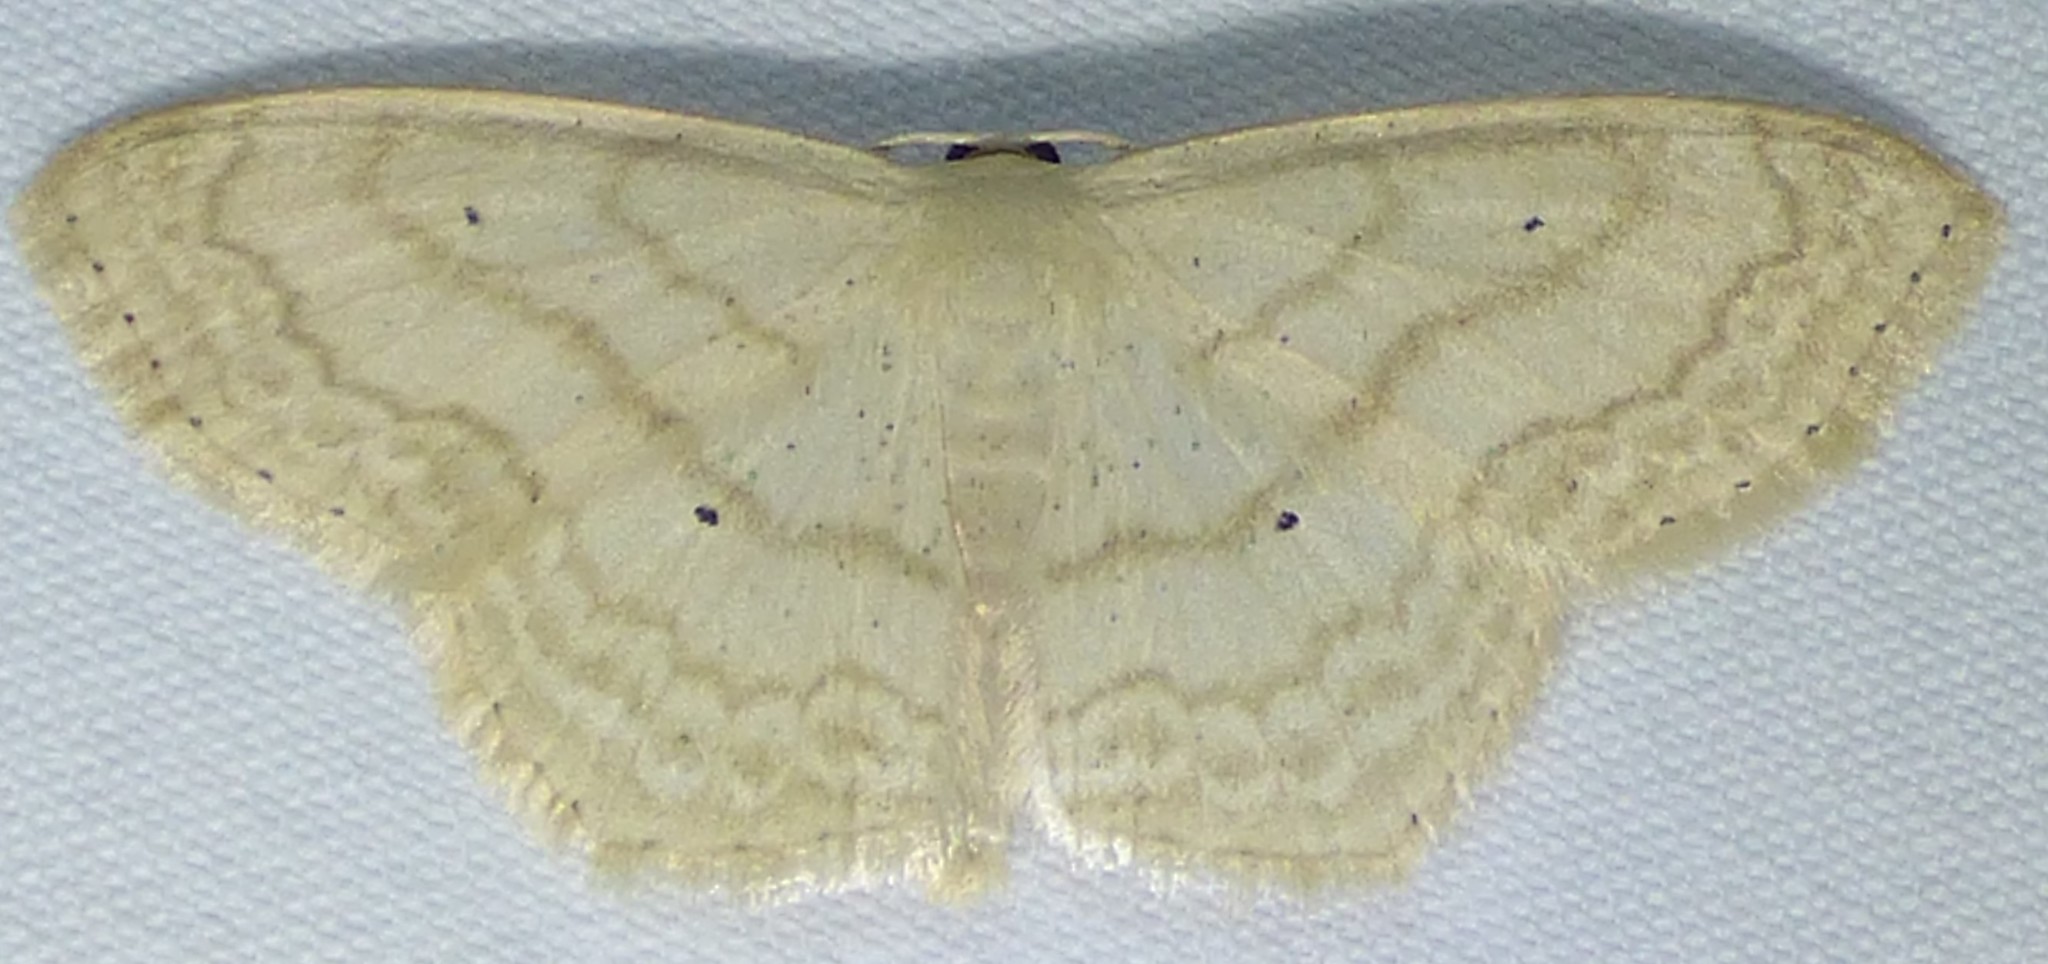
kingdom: Animalia
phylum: Arthropoda
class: Insecta
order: Lepidoptera
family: Geometridae
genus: Scopula
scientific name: Scopula limboundata
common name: Large lace border
